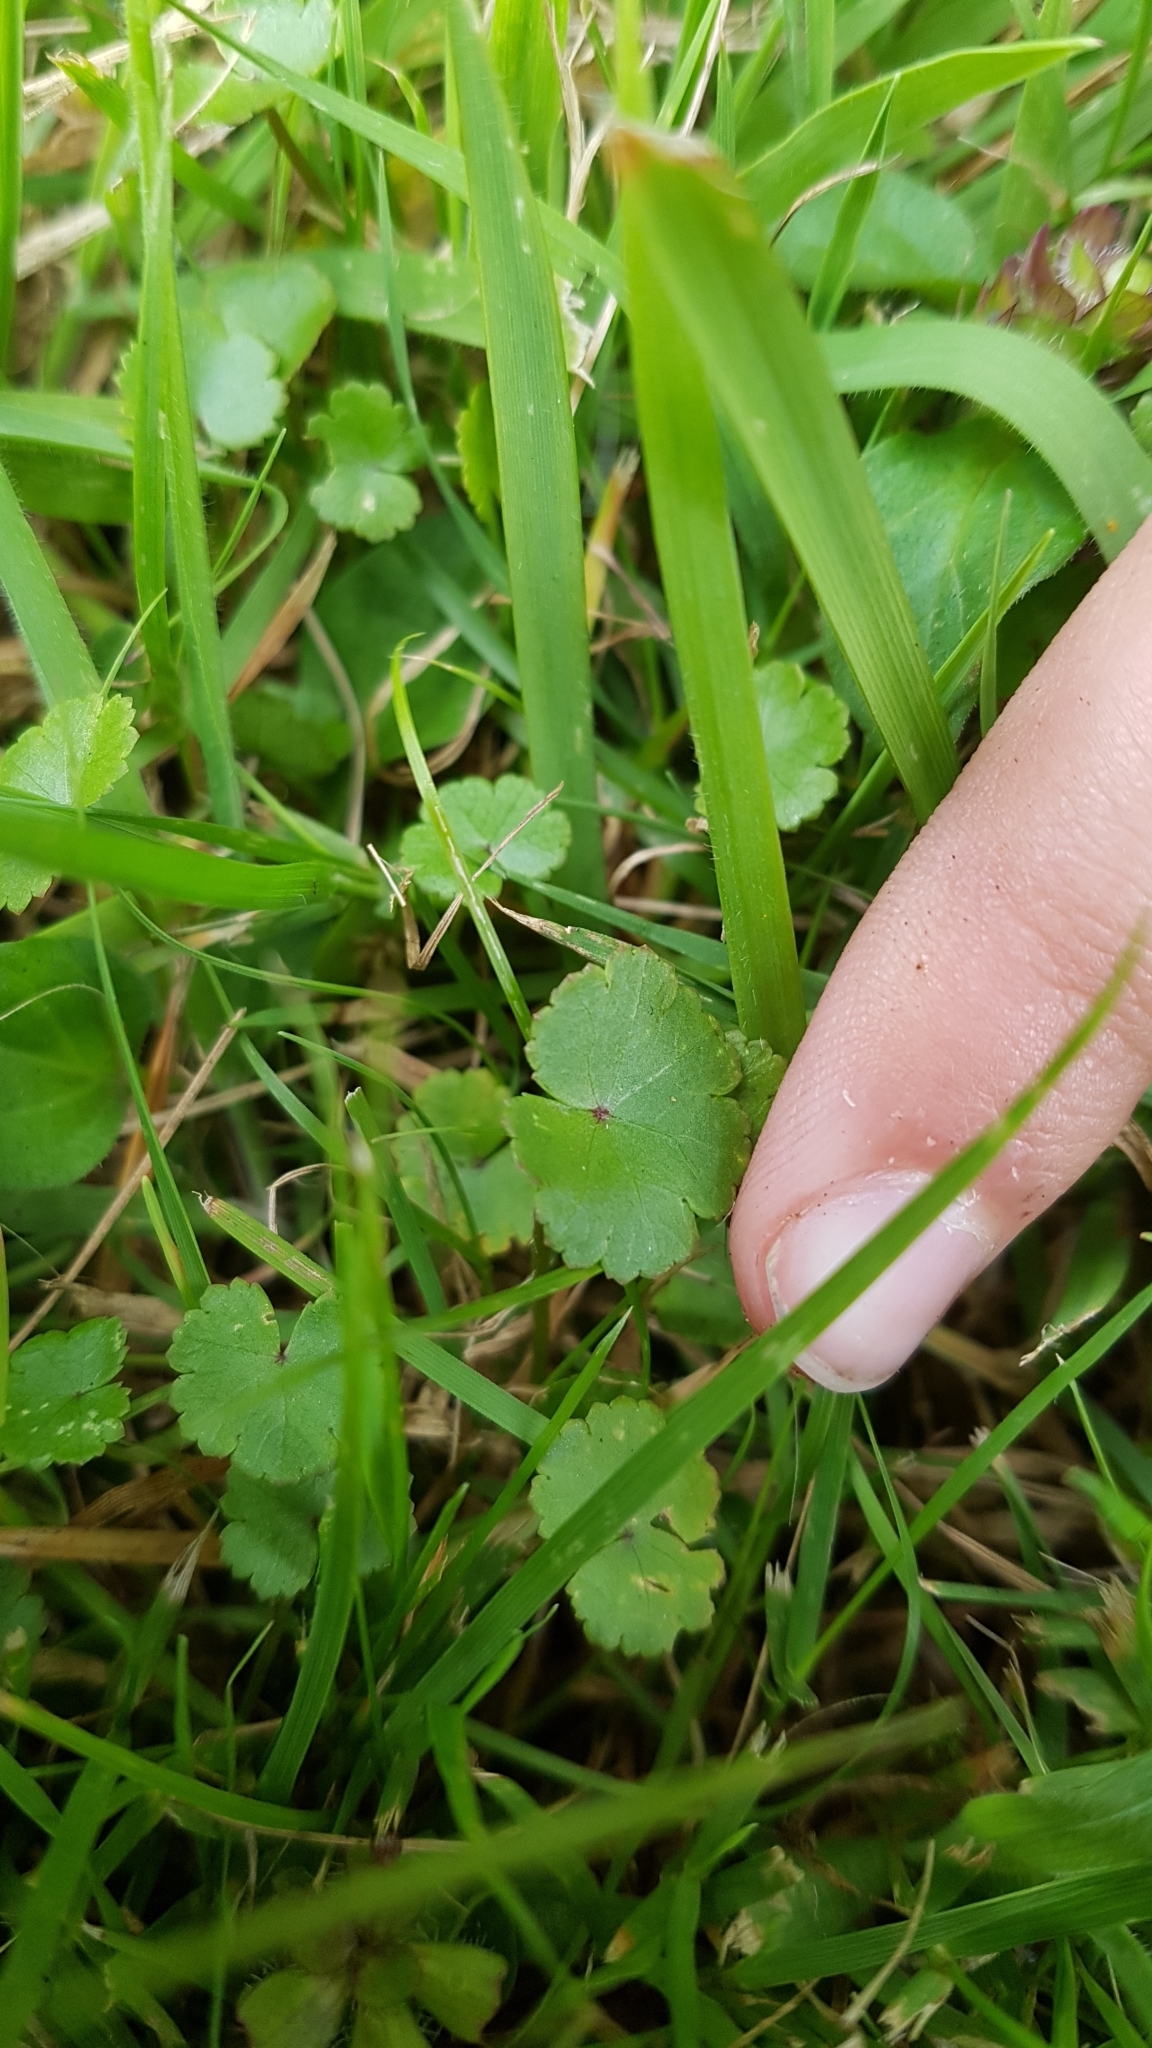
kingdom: Plantae
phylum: Tracheophyta
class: Magnoliopsida
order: Apiales
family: Araliaceae
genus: Hydrocotyle
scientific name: Hydrocotyle novae-zeelandiae
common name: New zealand pennywort
